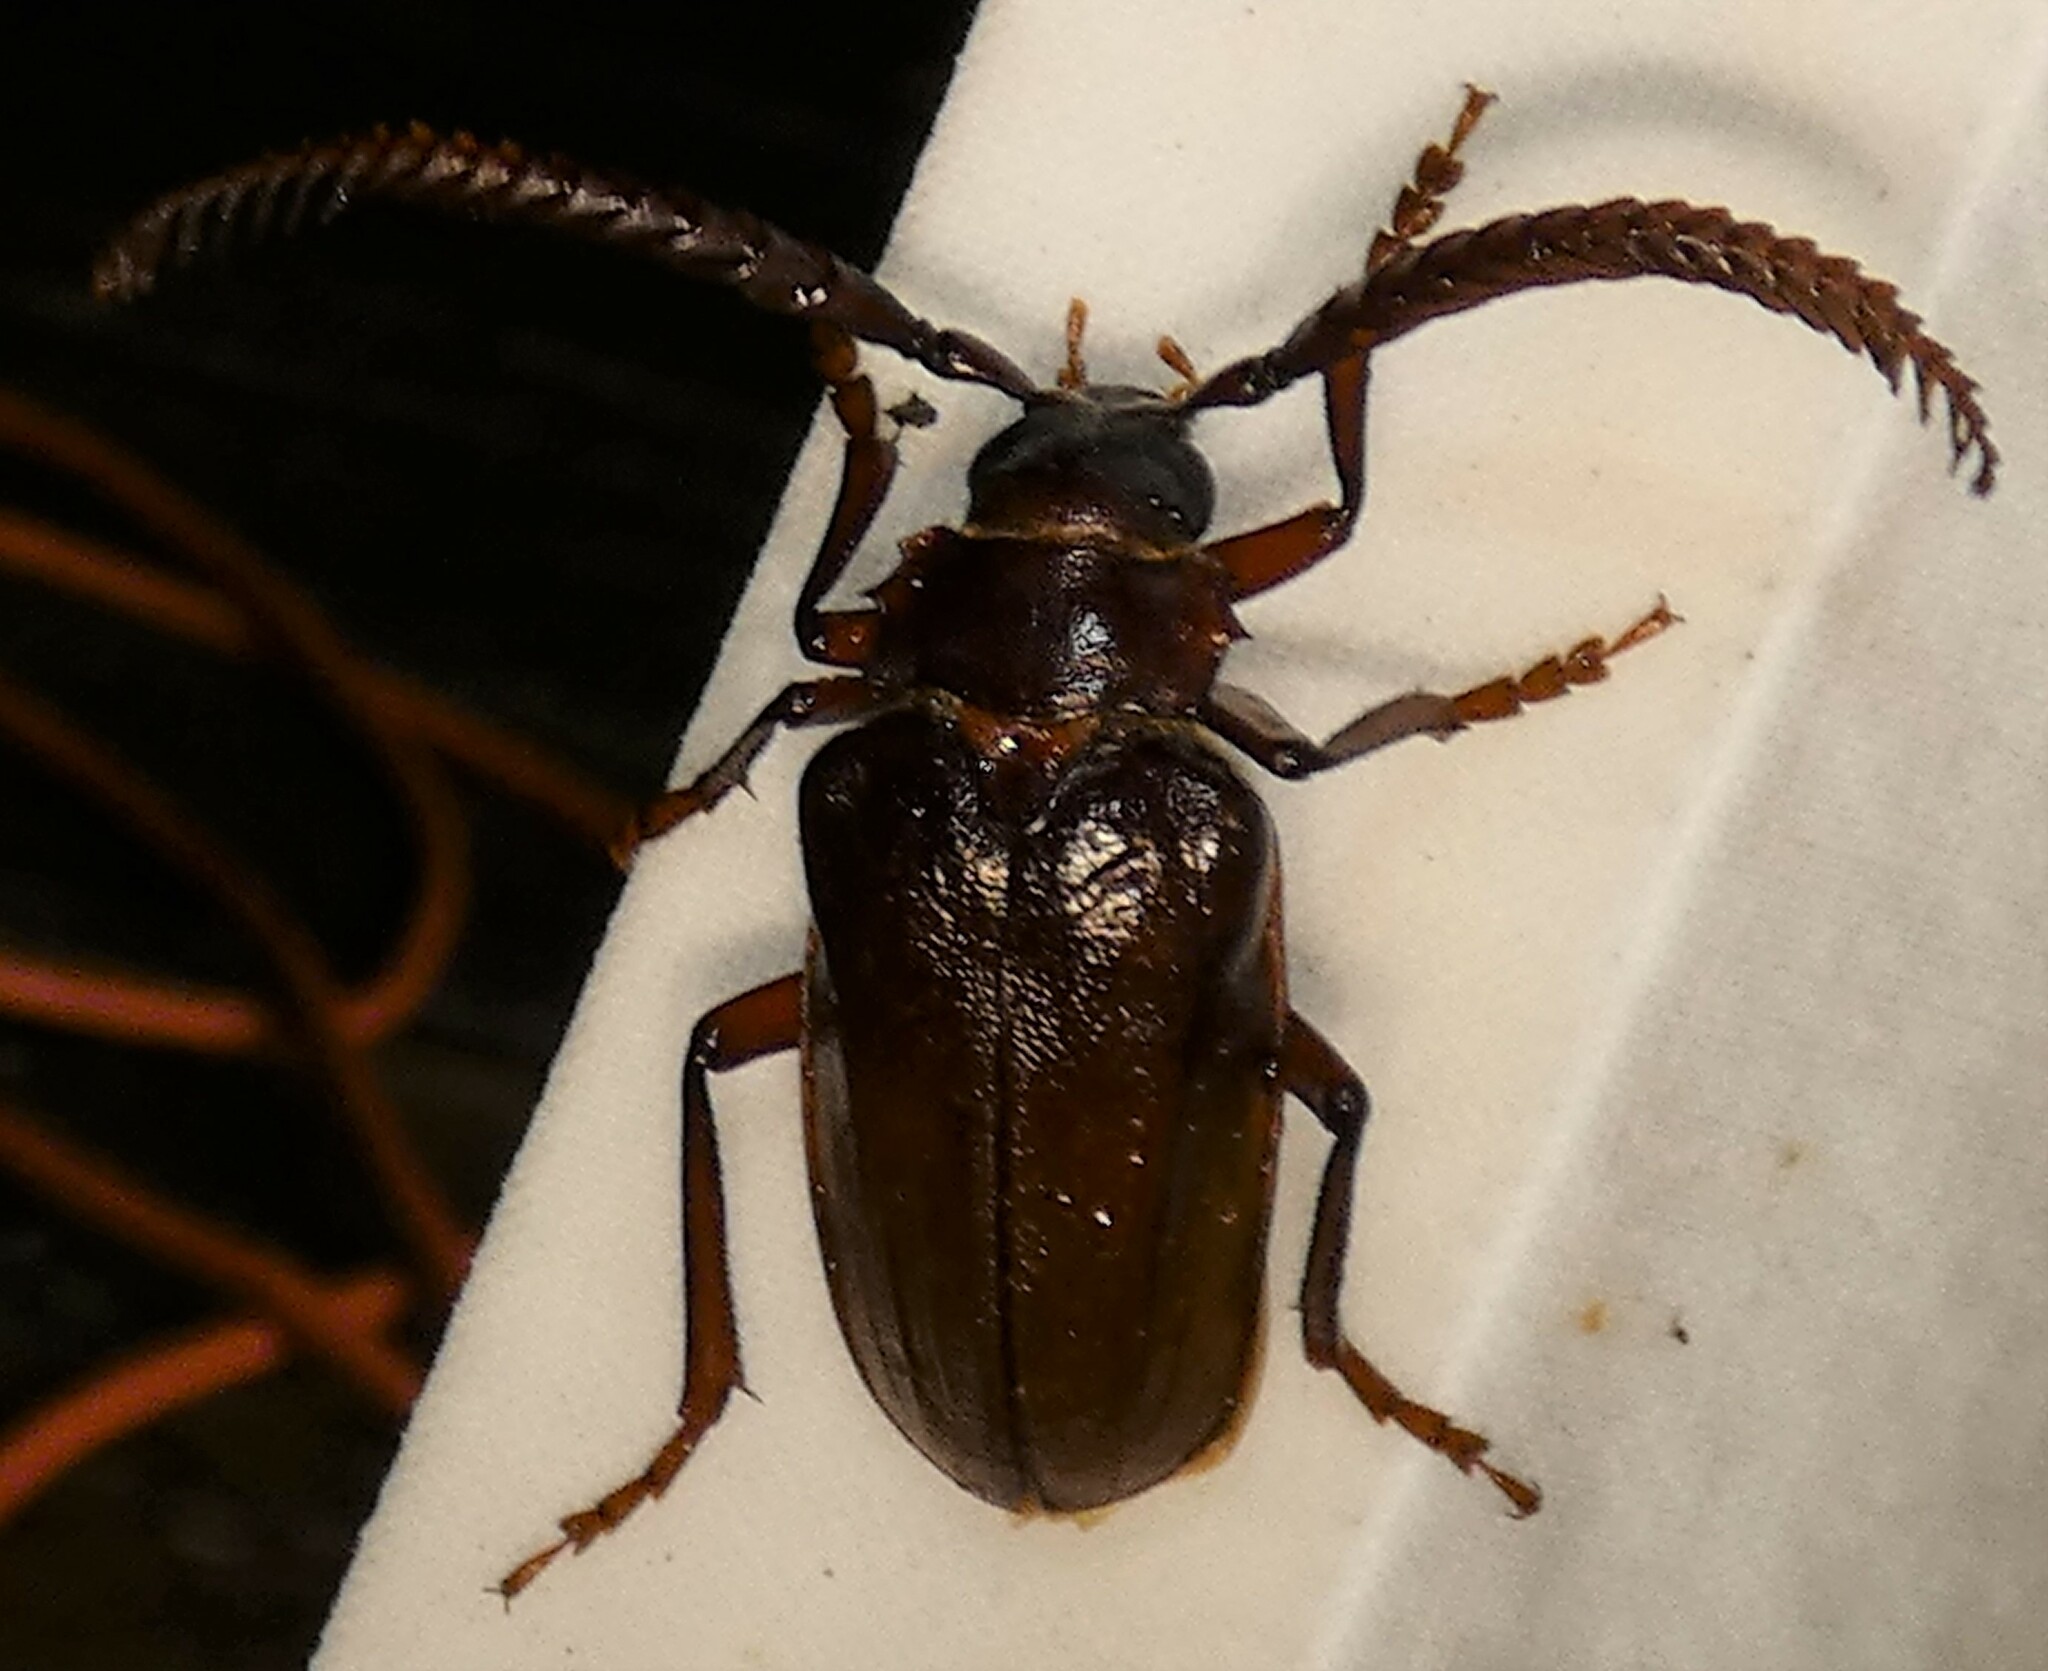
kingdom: Animalia
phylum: Arthropoda
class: Insecta
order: Coleoptera
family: Cerambycidae
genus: Prionus
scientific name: Prionus imbricornis
